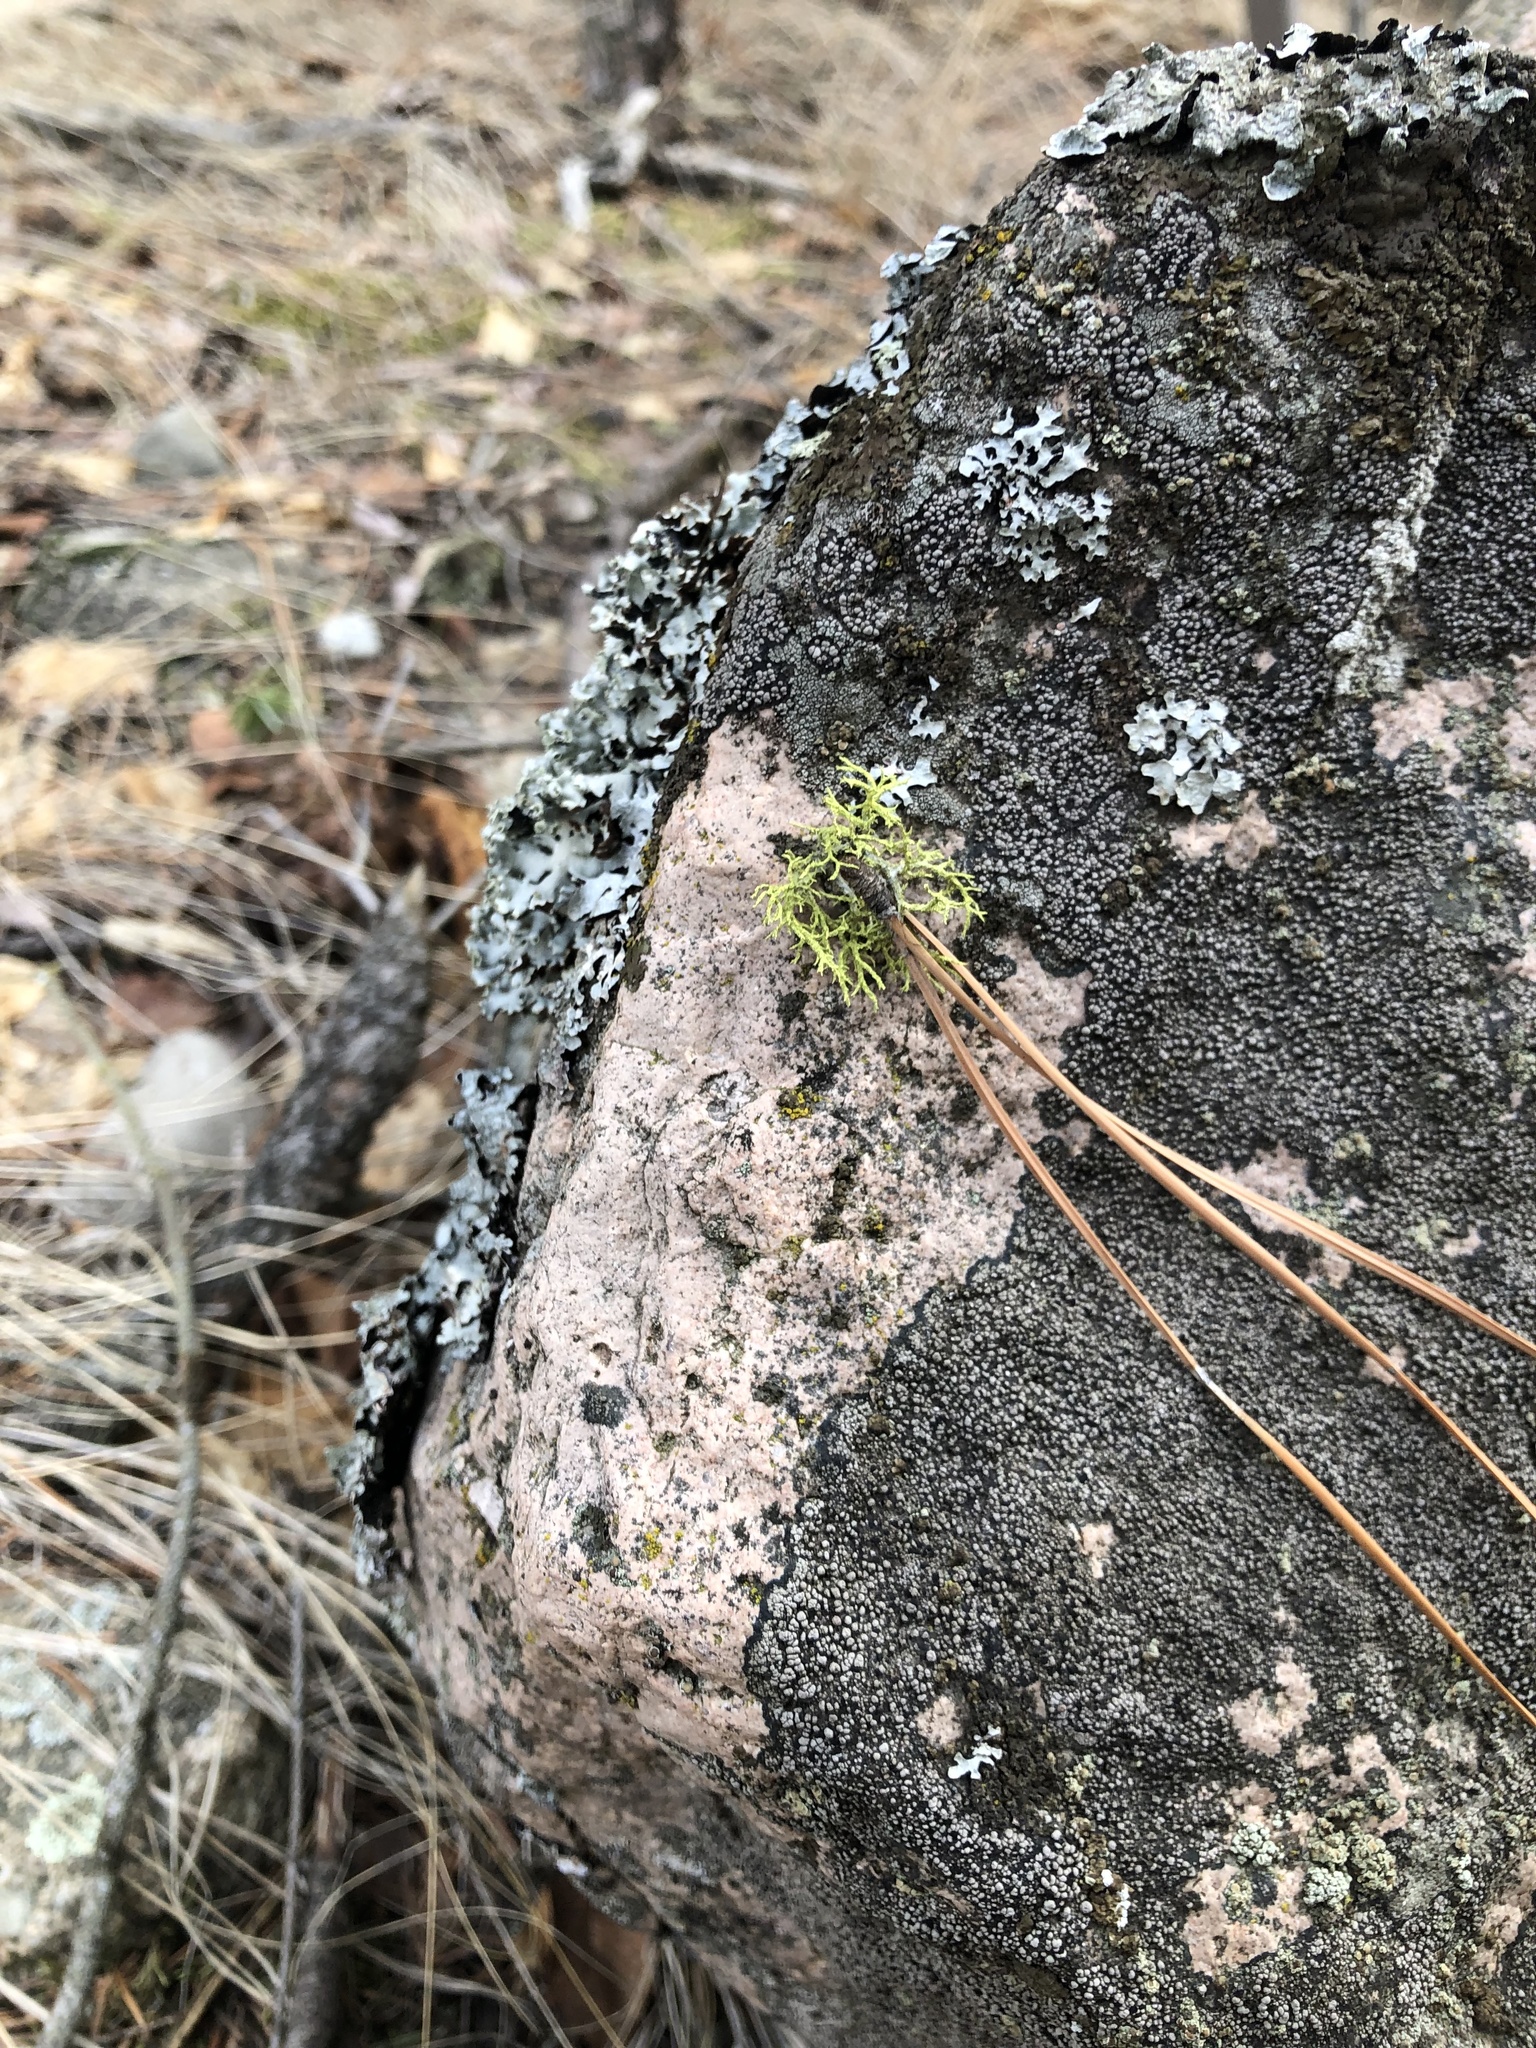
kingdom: Fungi
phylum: Ascomycota
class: Lecanoromycetes
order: Lecanorales
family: Parmeliaceae
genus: Letharia
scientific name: Letharia vulpina
